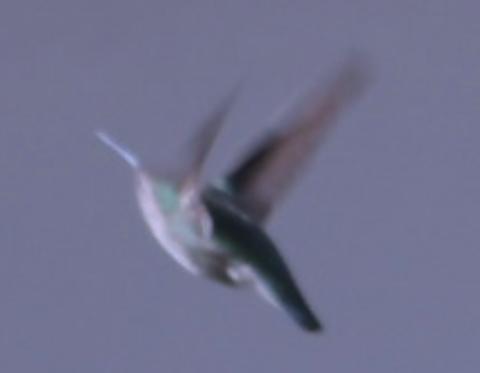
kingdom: Animalia
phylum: Chordata
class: Aves
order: Apodiformes
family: Trochilidae
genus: Calypte
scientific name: Calypte anna
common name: Anna's hummingbird
